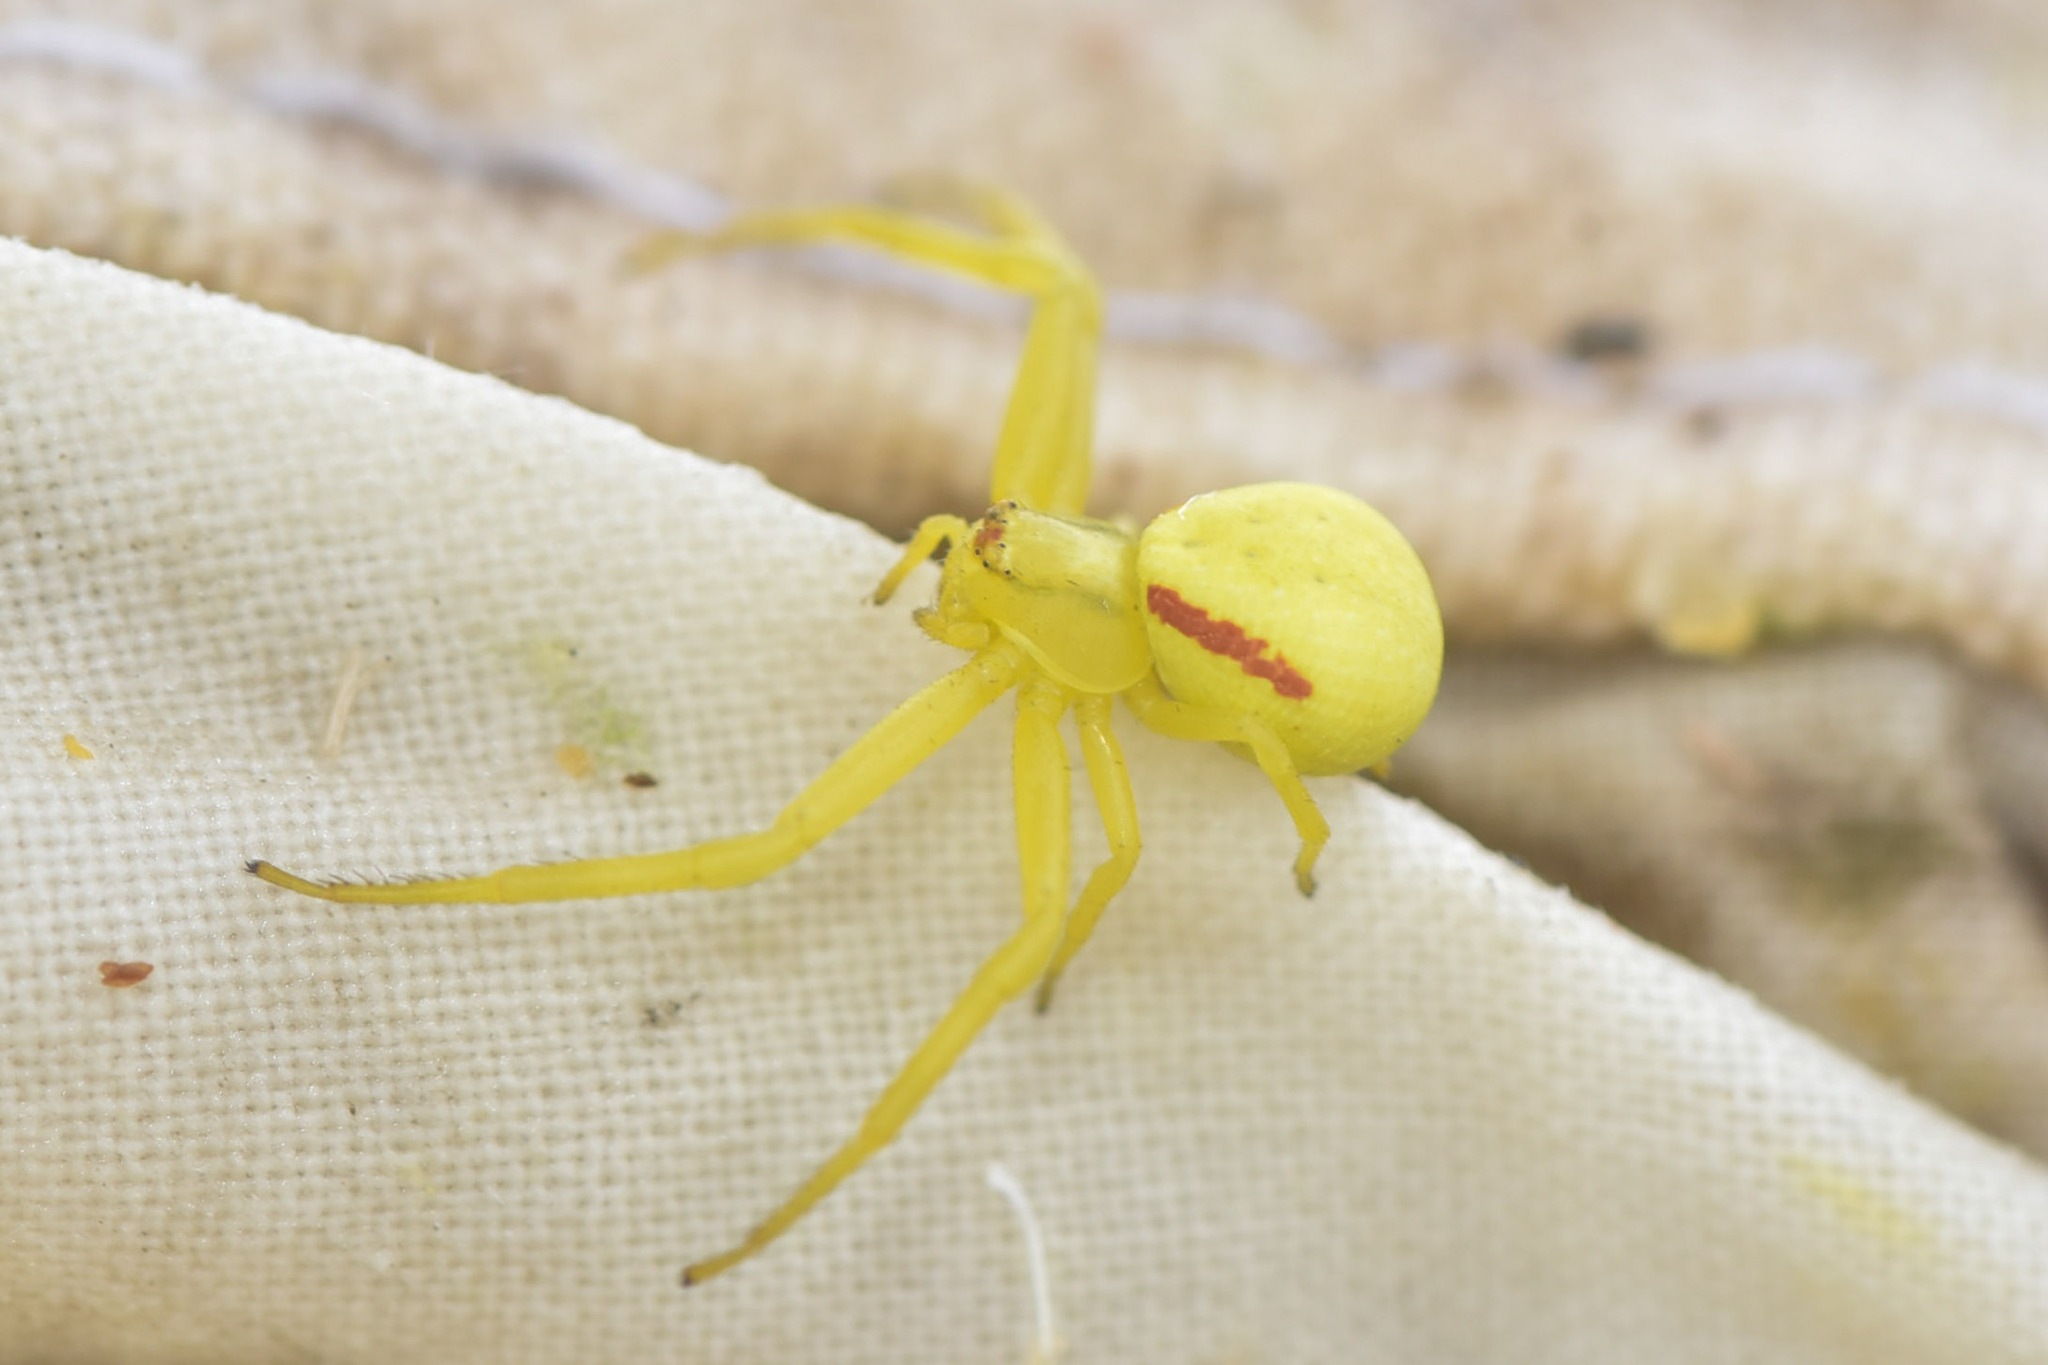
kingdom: Animalia
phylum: Arthropoda
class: Arachnida
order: Araneae
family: Thomisidae
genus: Misumena
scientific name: Misumena vatia
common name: Goldenrod crab spider
